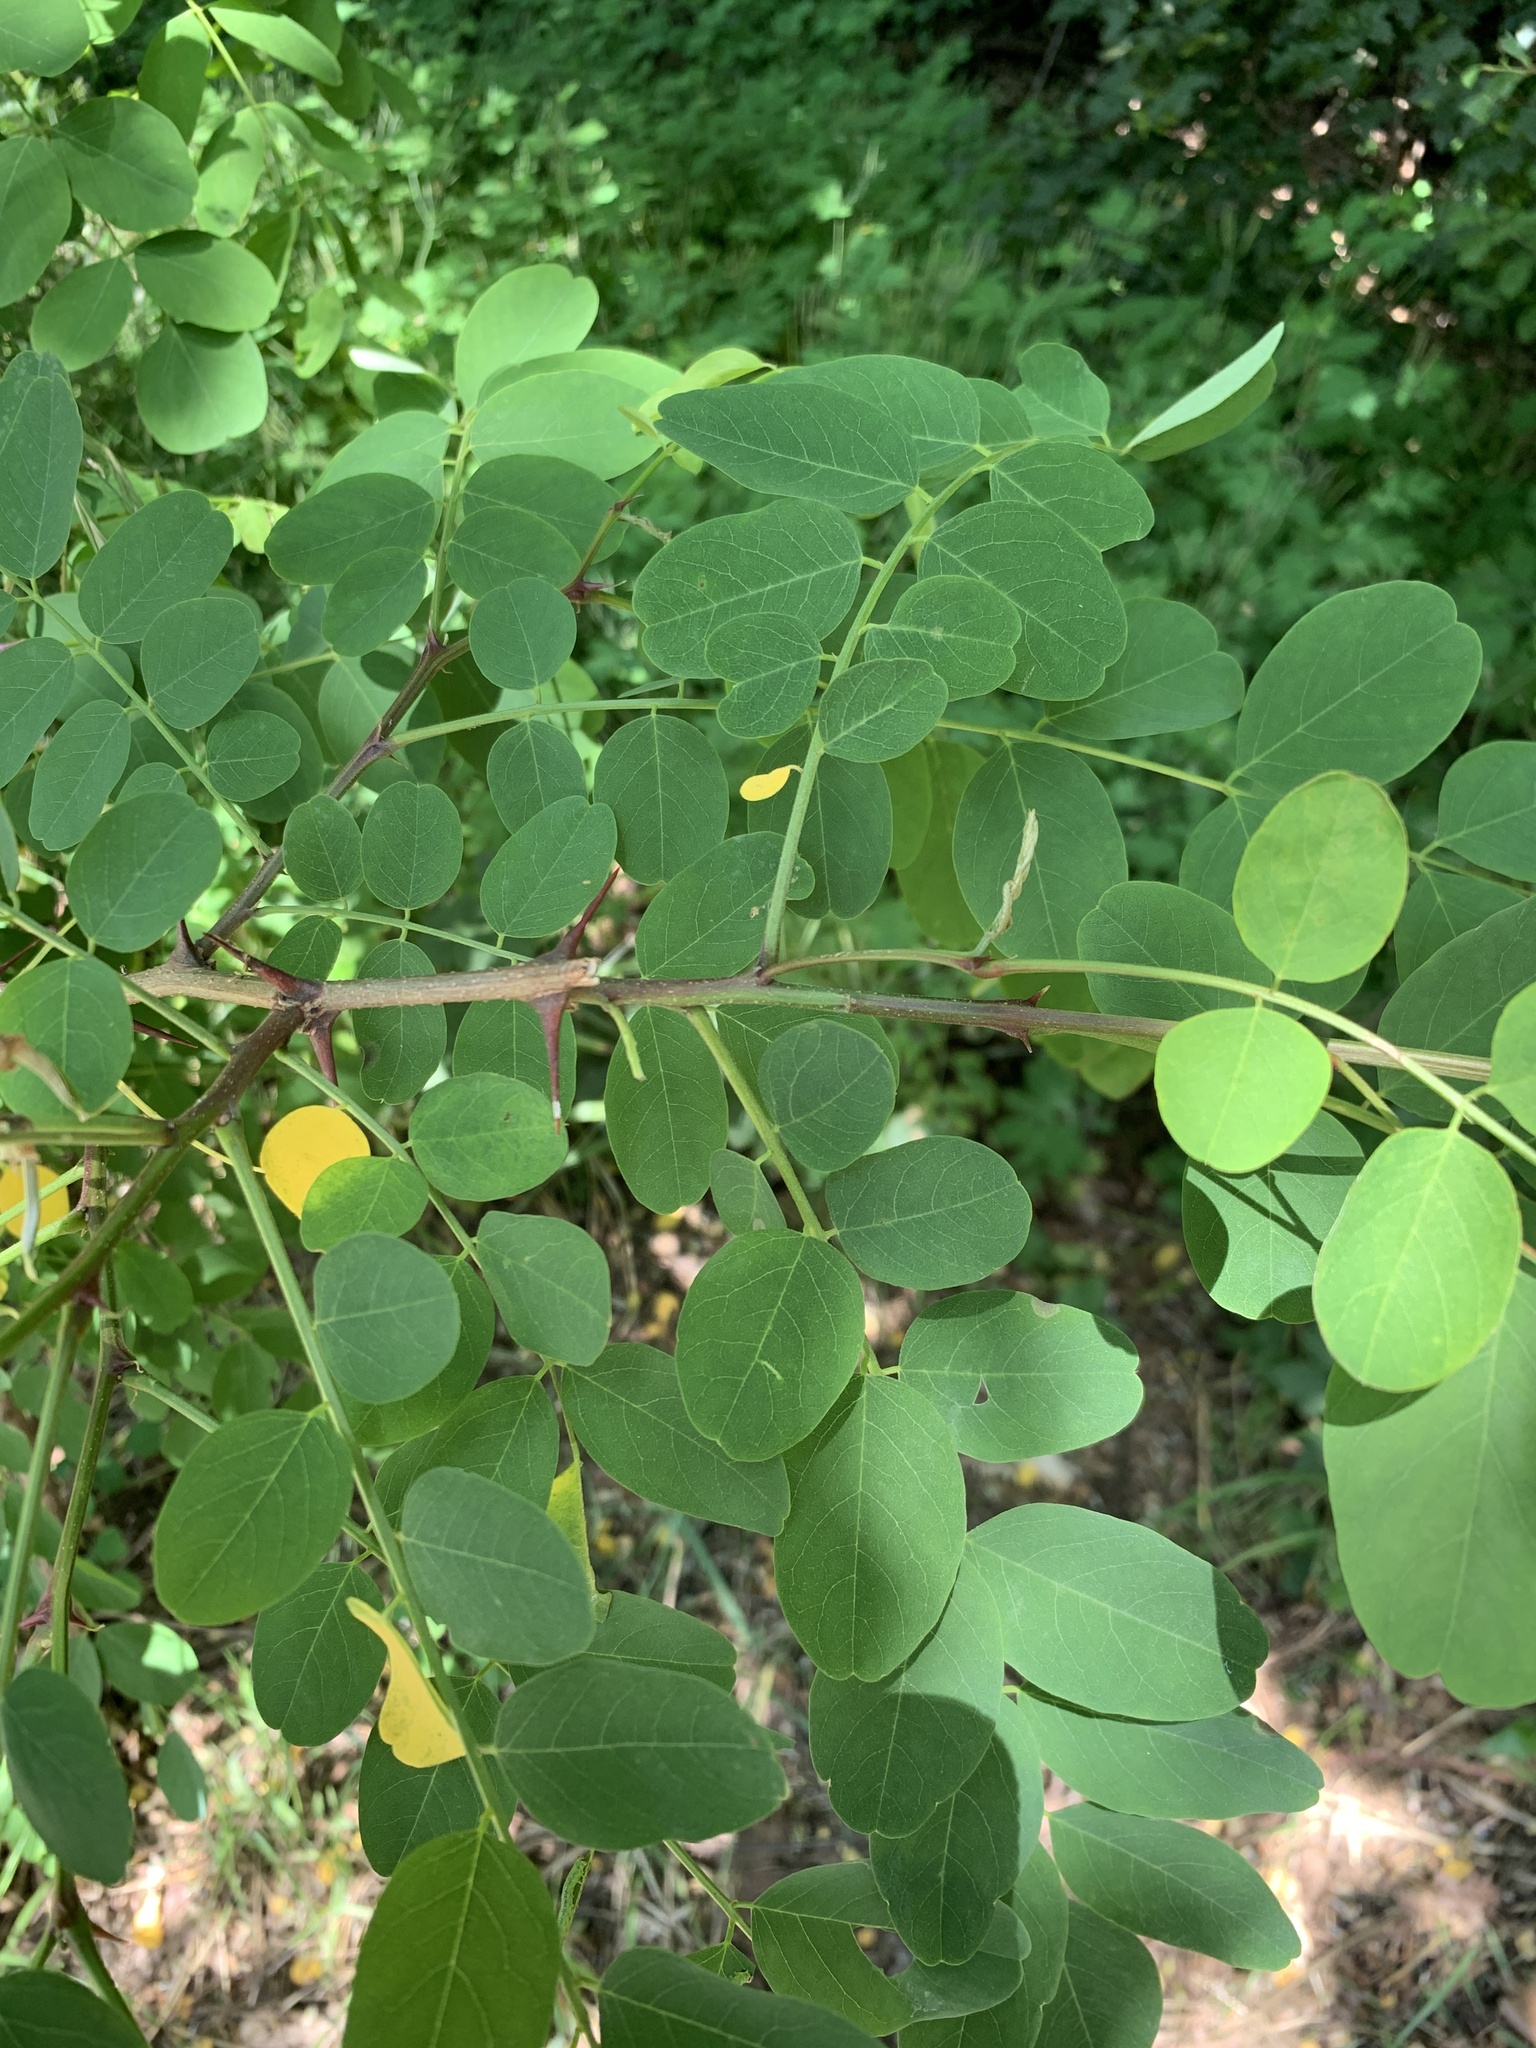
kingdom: Plantae
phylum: Tracheophyta
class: Magnoliopsida
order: Fabales
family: Fabaceae
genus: Robinia
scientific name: Robinia pseudoacacia
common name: Black locust
